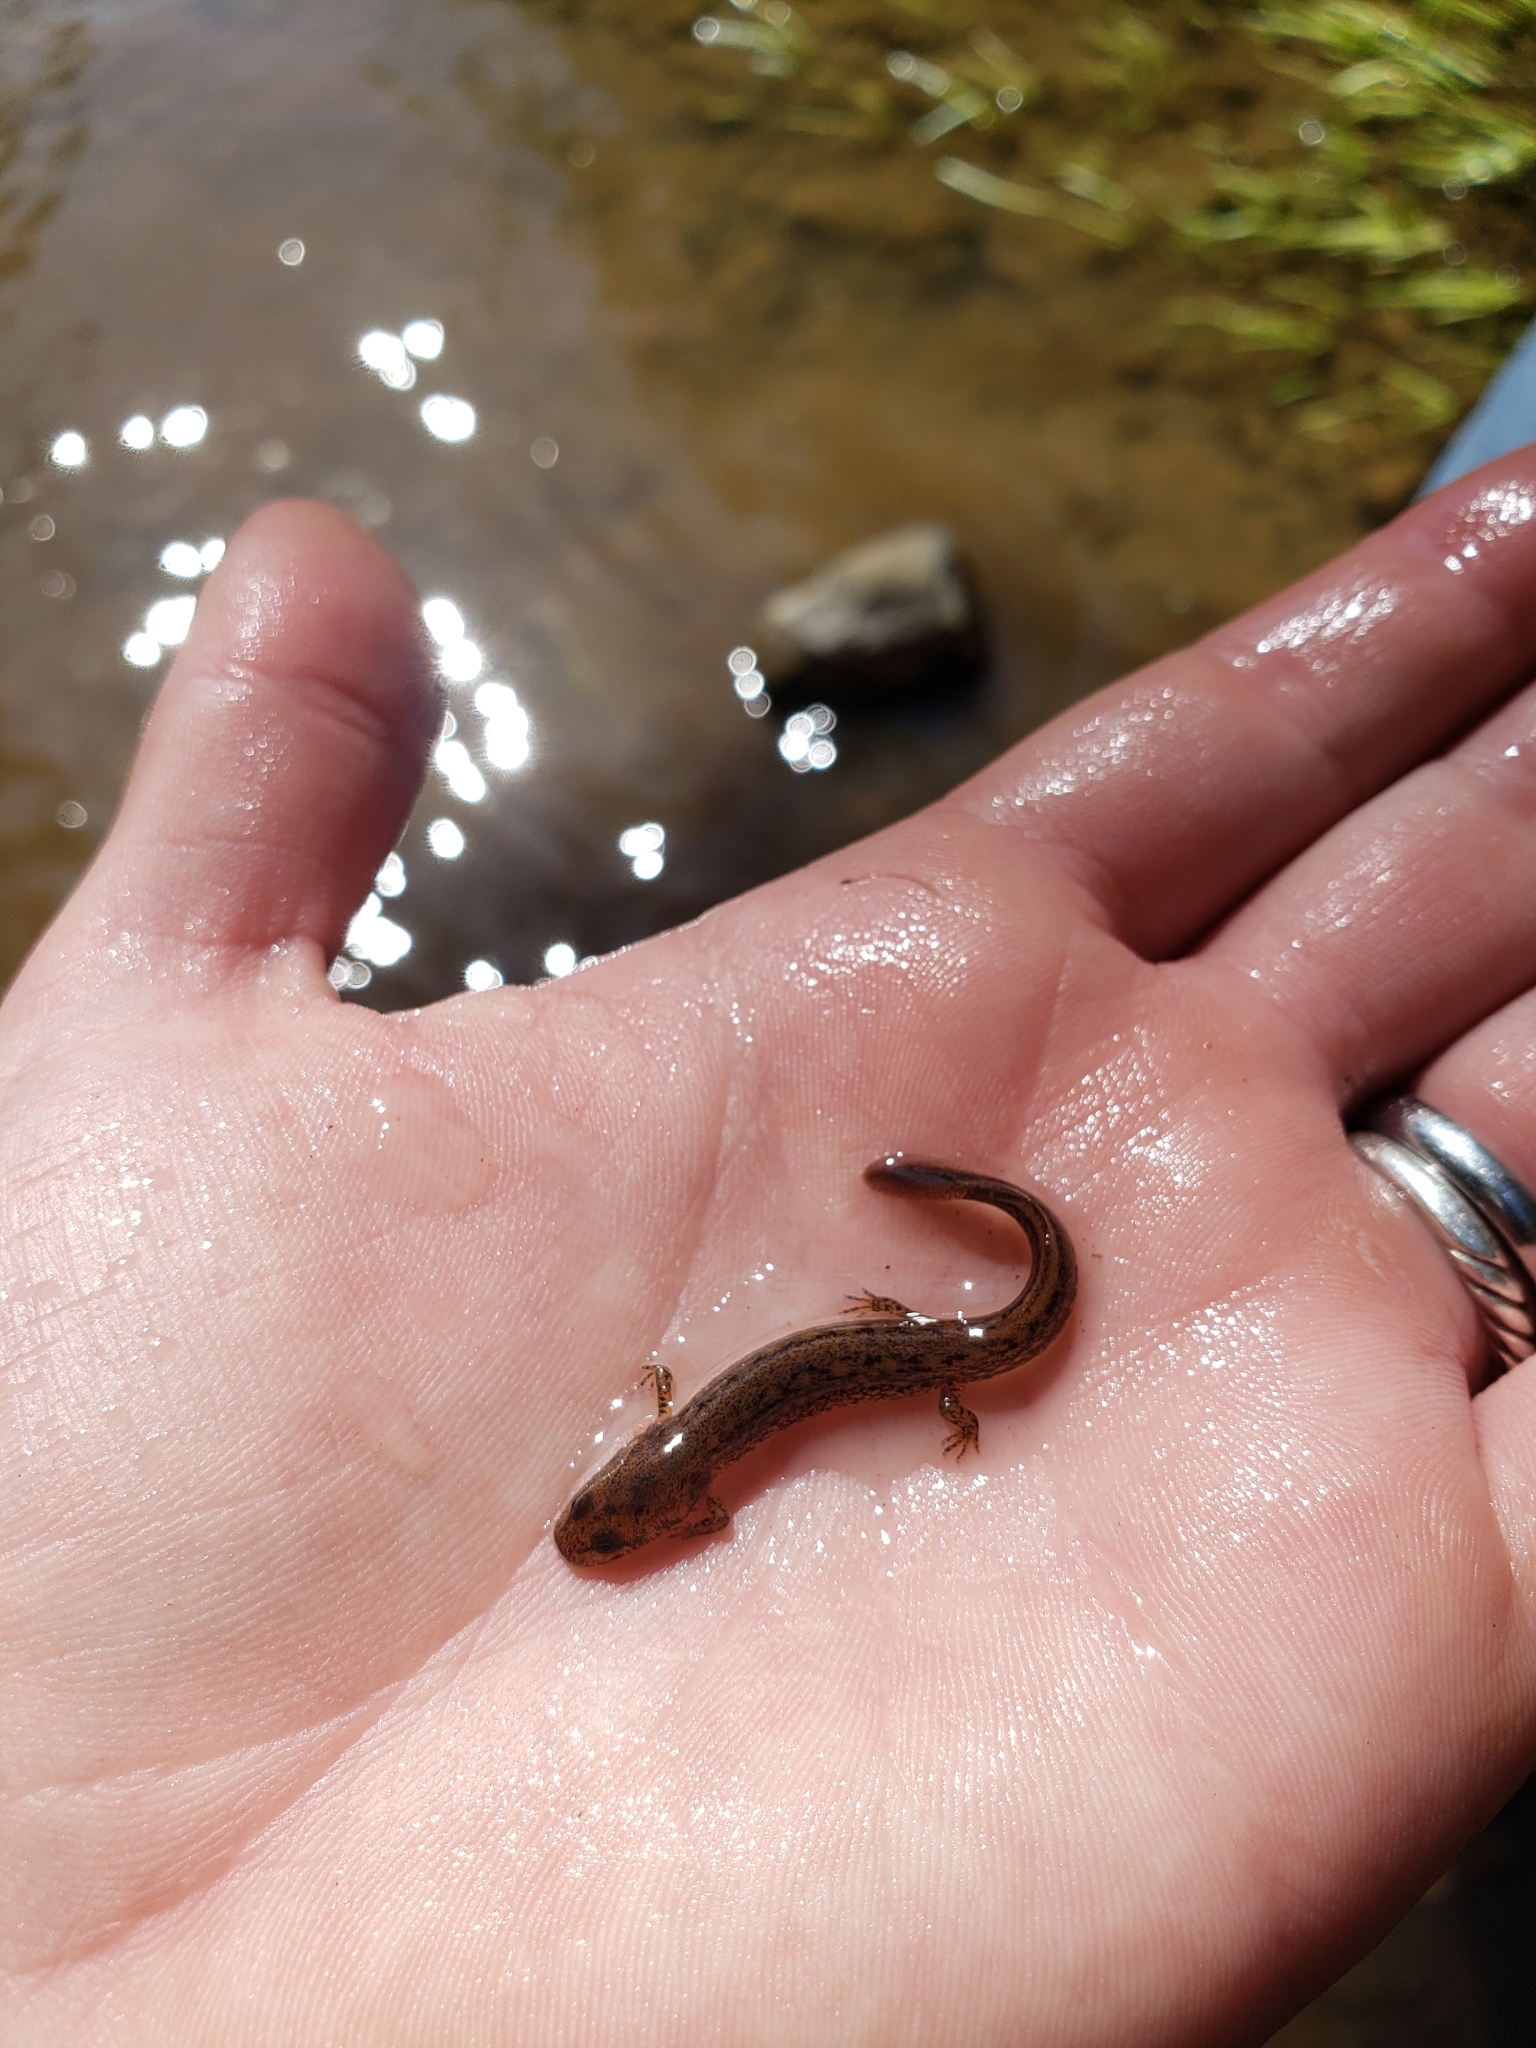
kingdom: Animalia
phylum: Chordata
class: Amphibia
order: Caudata
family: Plethodontidae
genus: Eurycea
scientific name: Eurycea bislineata
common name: Northern two-lined salamander
